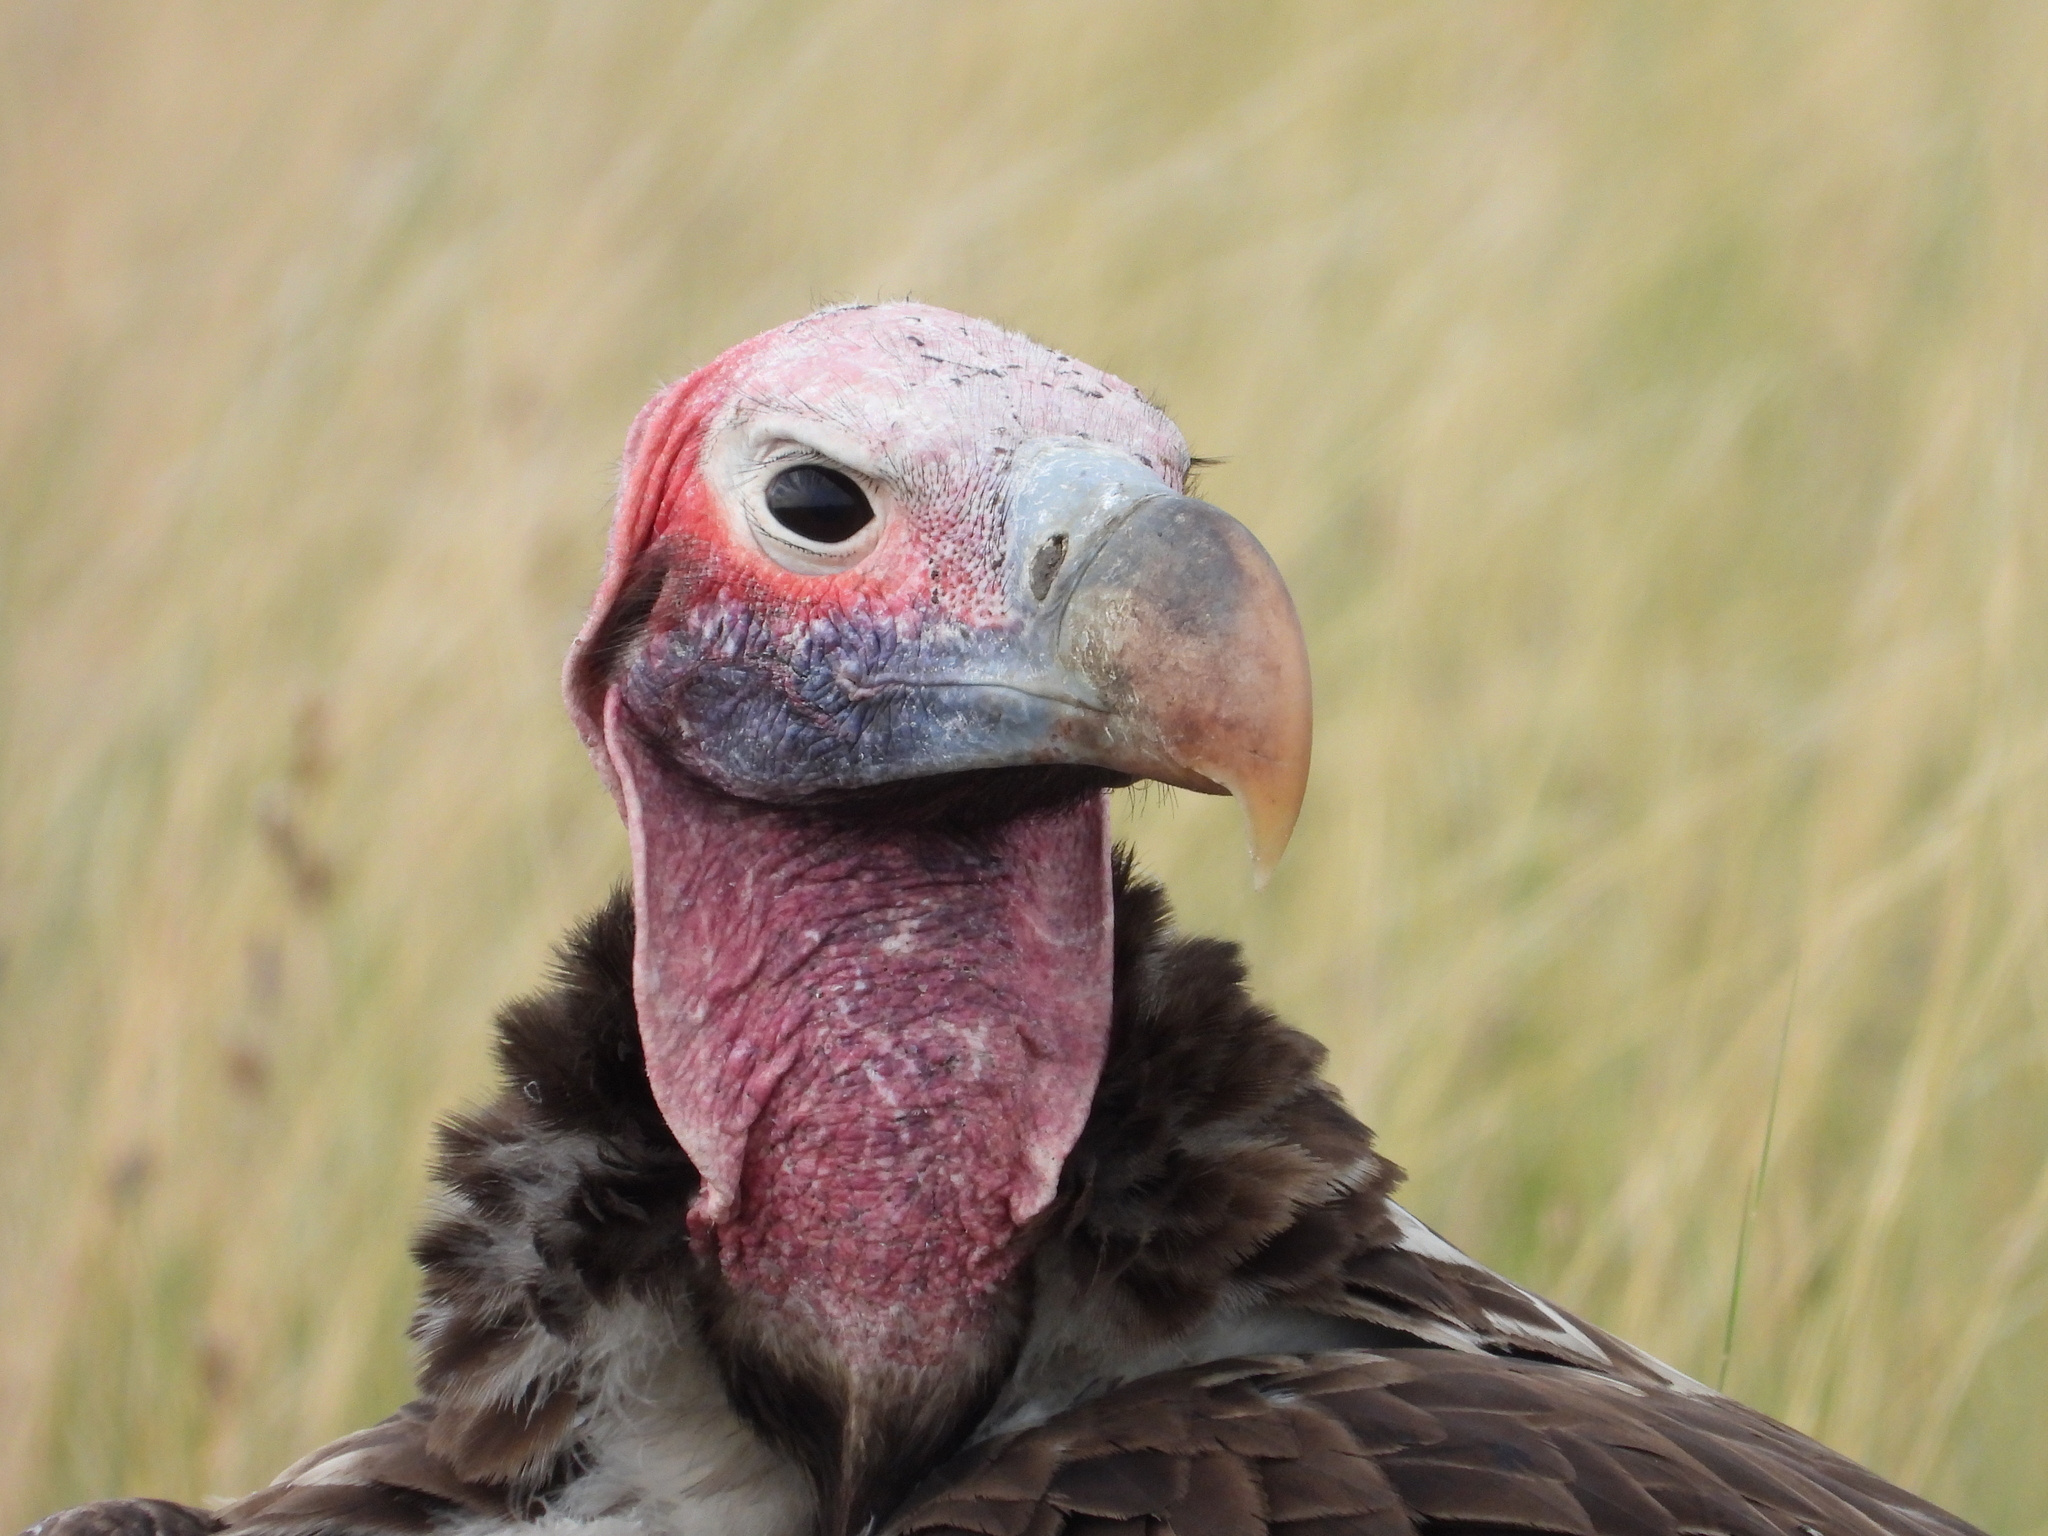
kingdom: Animalia
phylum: Chordata
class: Aves
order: Accipitriformes
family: Accipitridae
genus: Torgos
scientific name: Torgos tracheliotos
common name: Lappet-faced vulture
